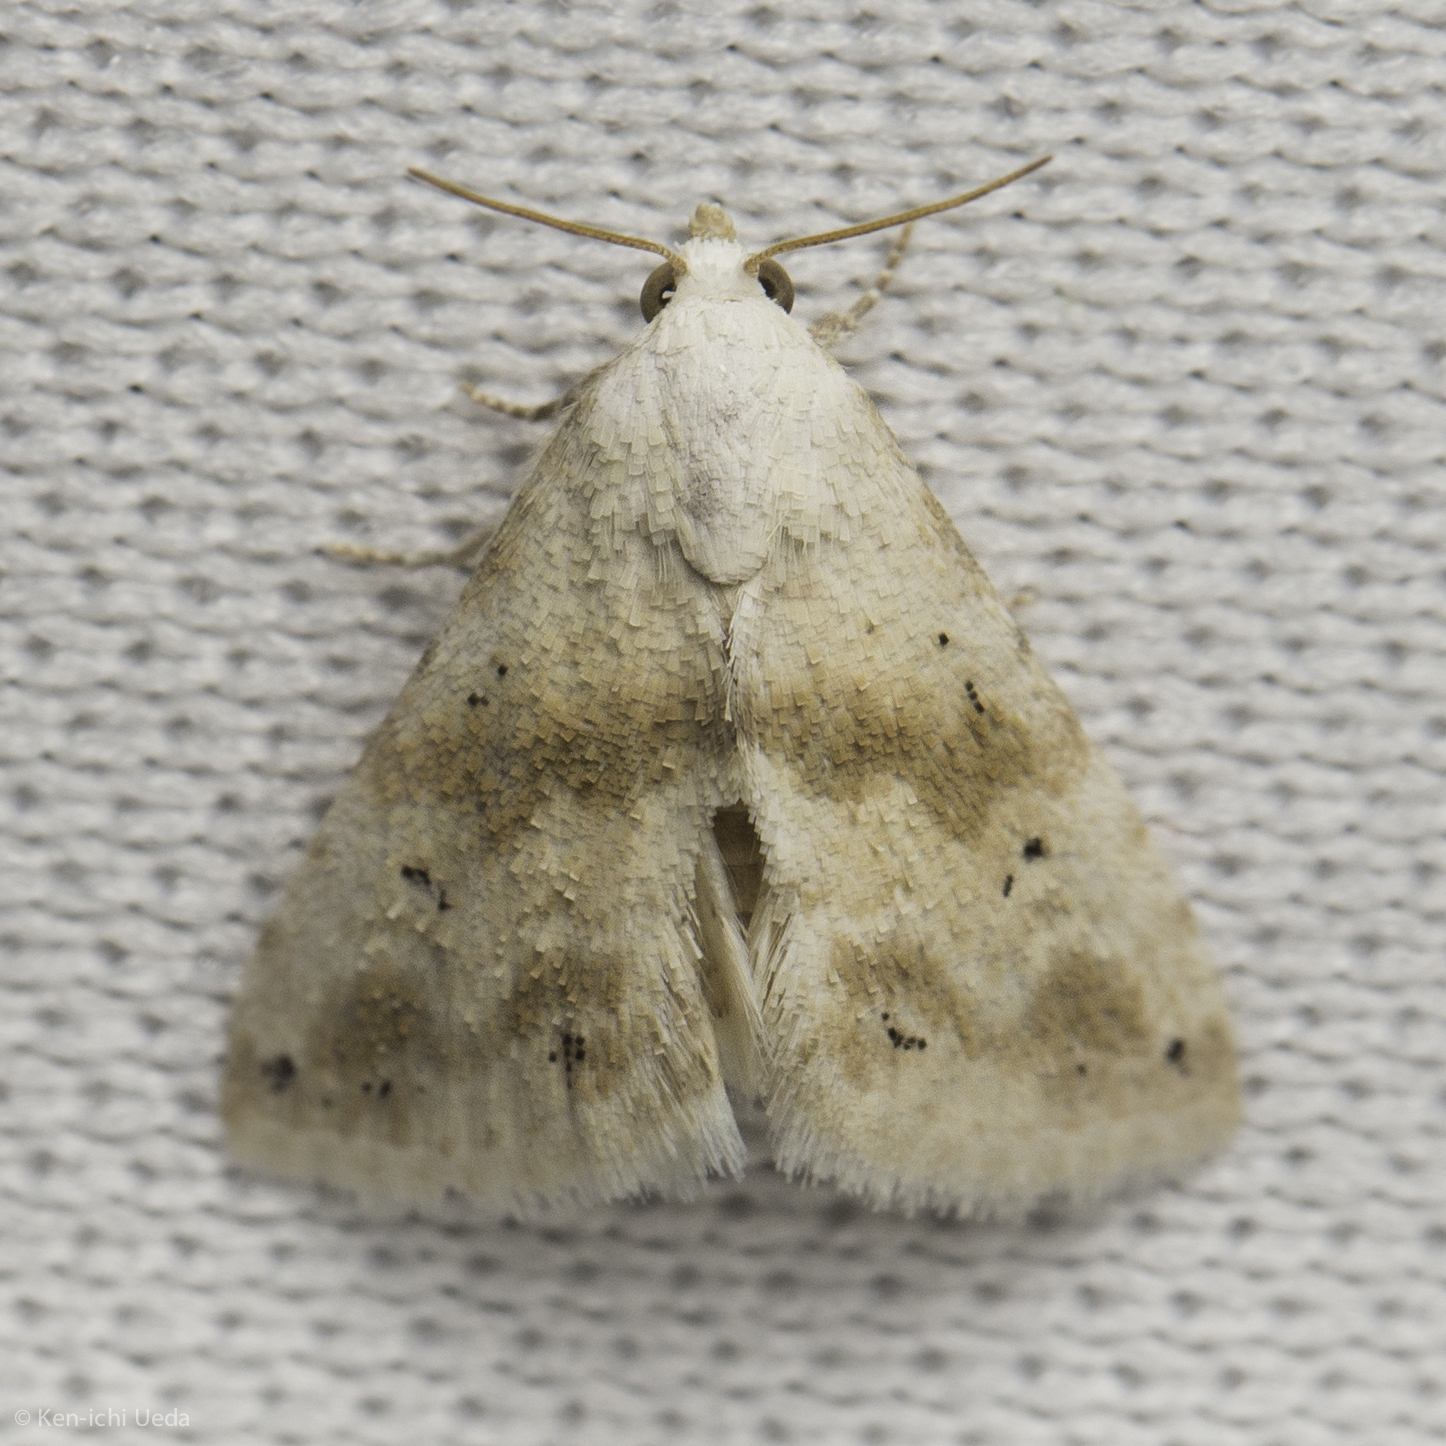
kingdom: Animalia
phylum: Arthropoda
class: Insecta
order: Lepidoptera
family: Noctuidae
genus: Eublemma
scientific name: Eublemma minima
